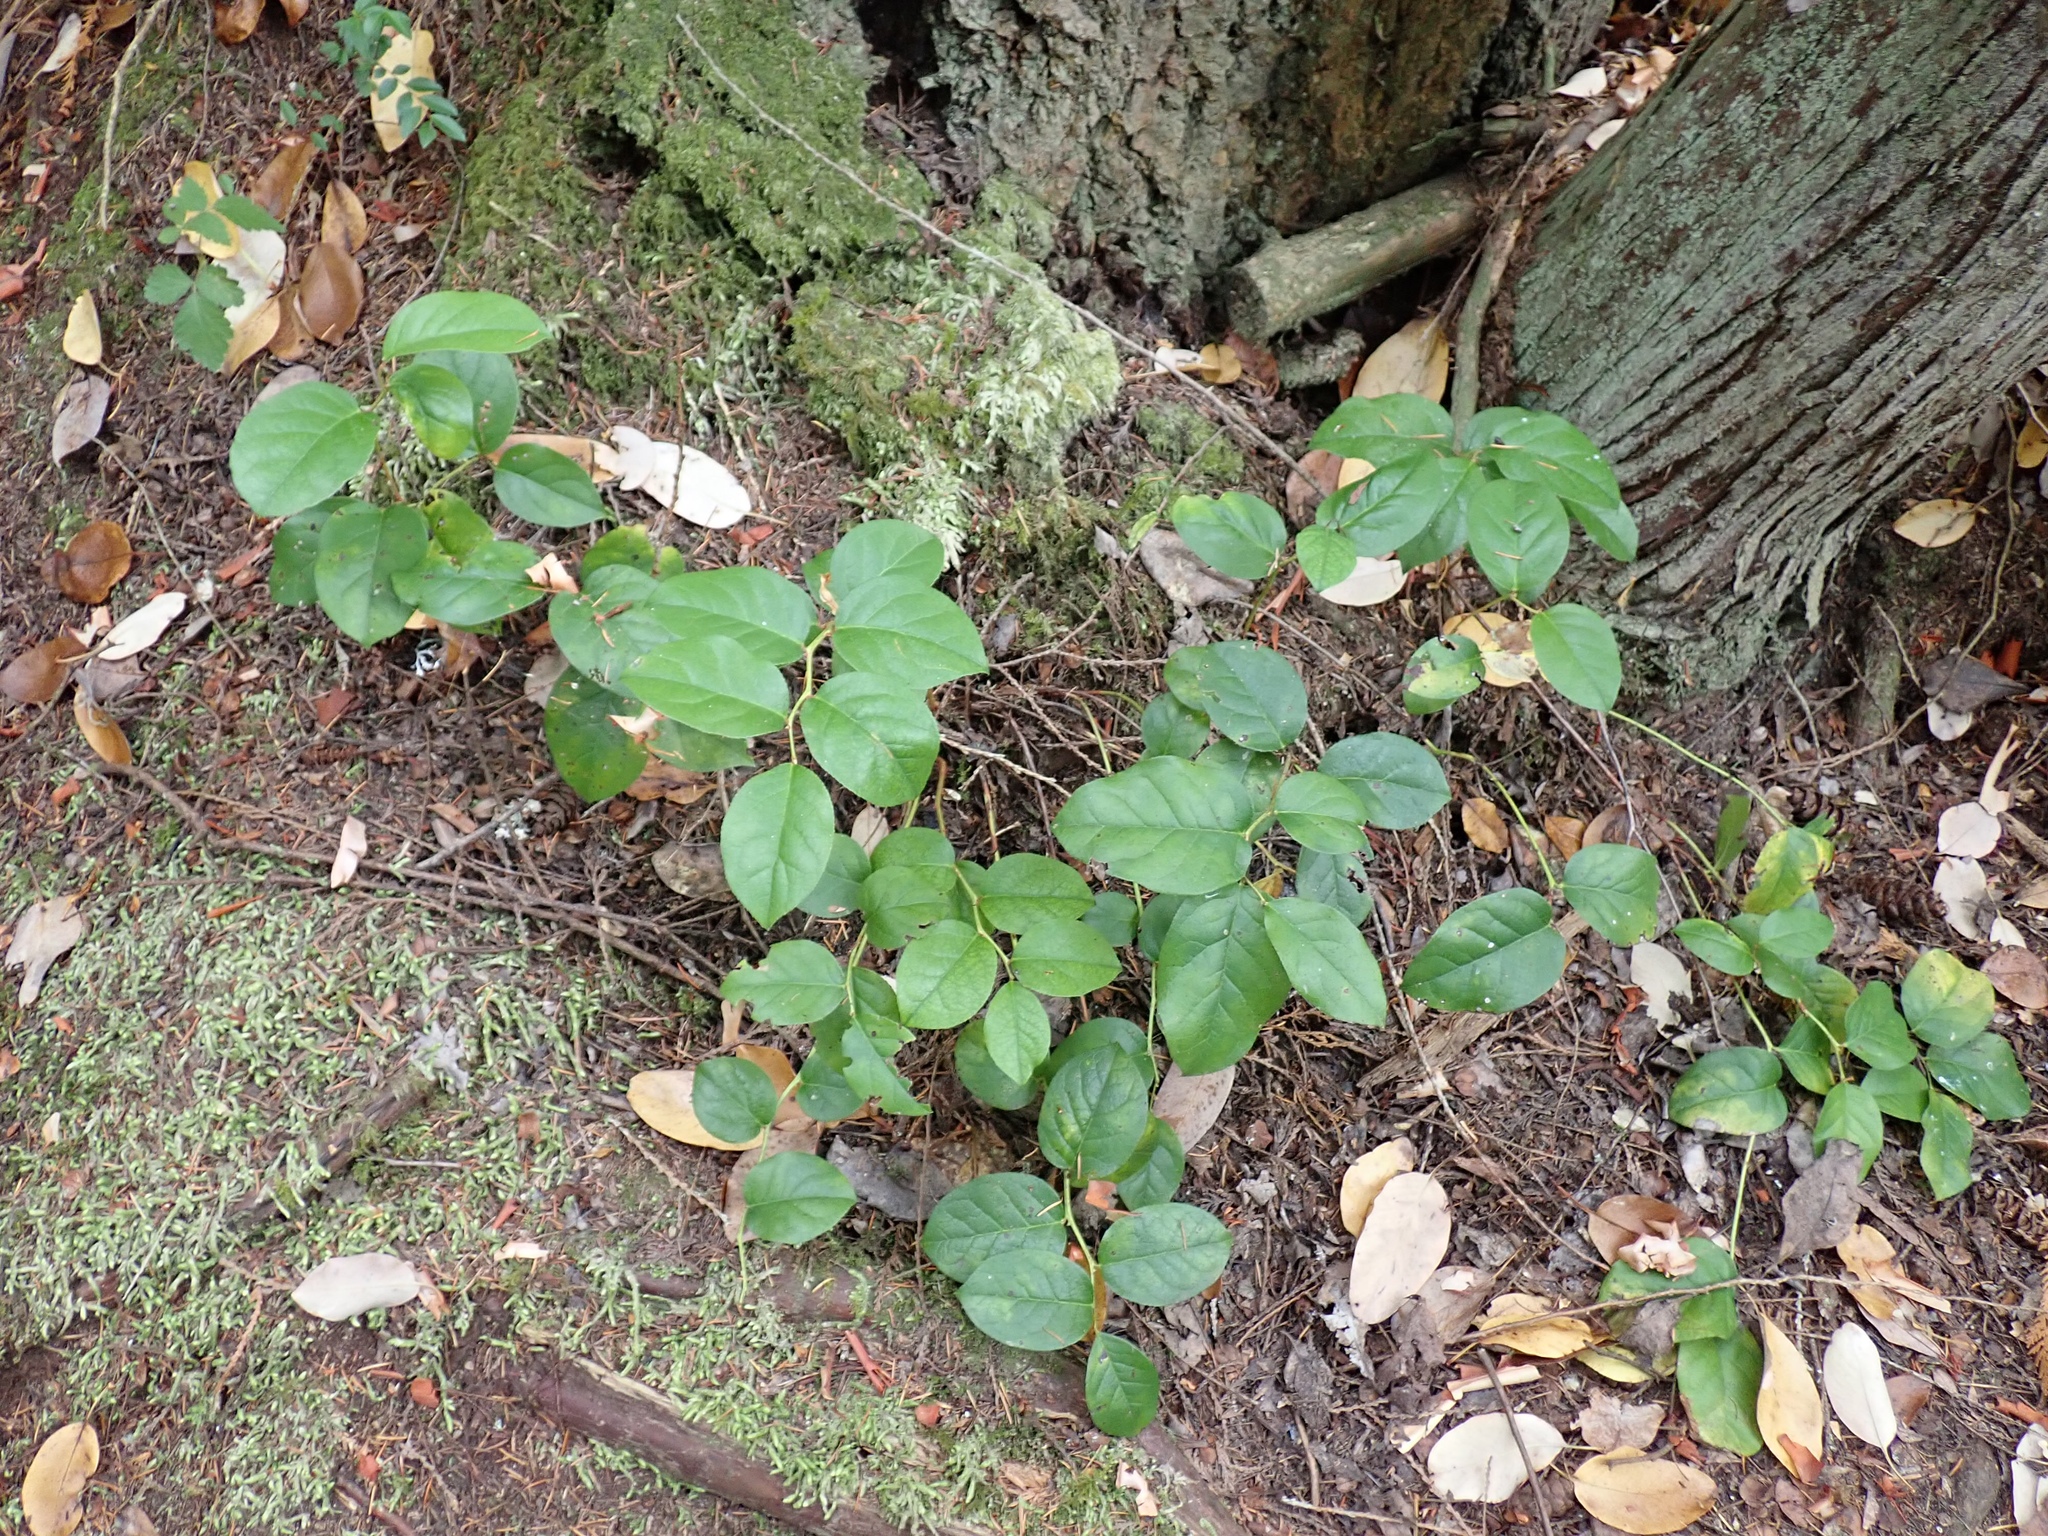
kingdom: Plantae
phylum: Tracheophyta
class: Magnoliopsida
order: Ericales
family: Ericaceae
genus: Gaultheria
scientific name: Gaultheria shallon
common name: Shallon
